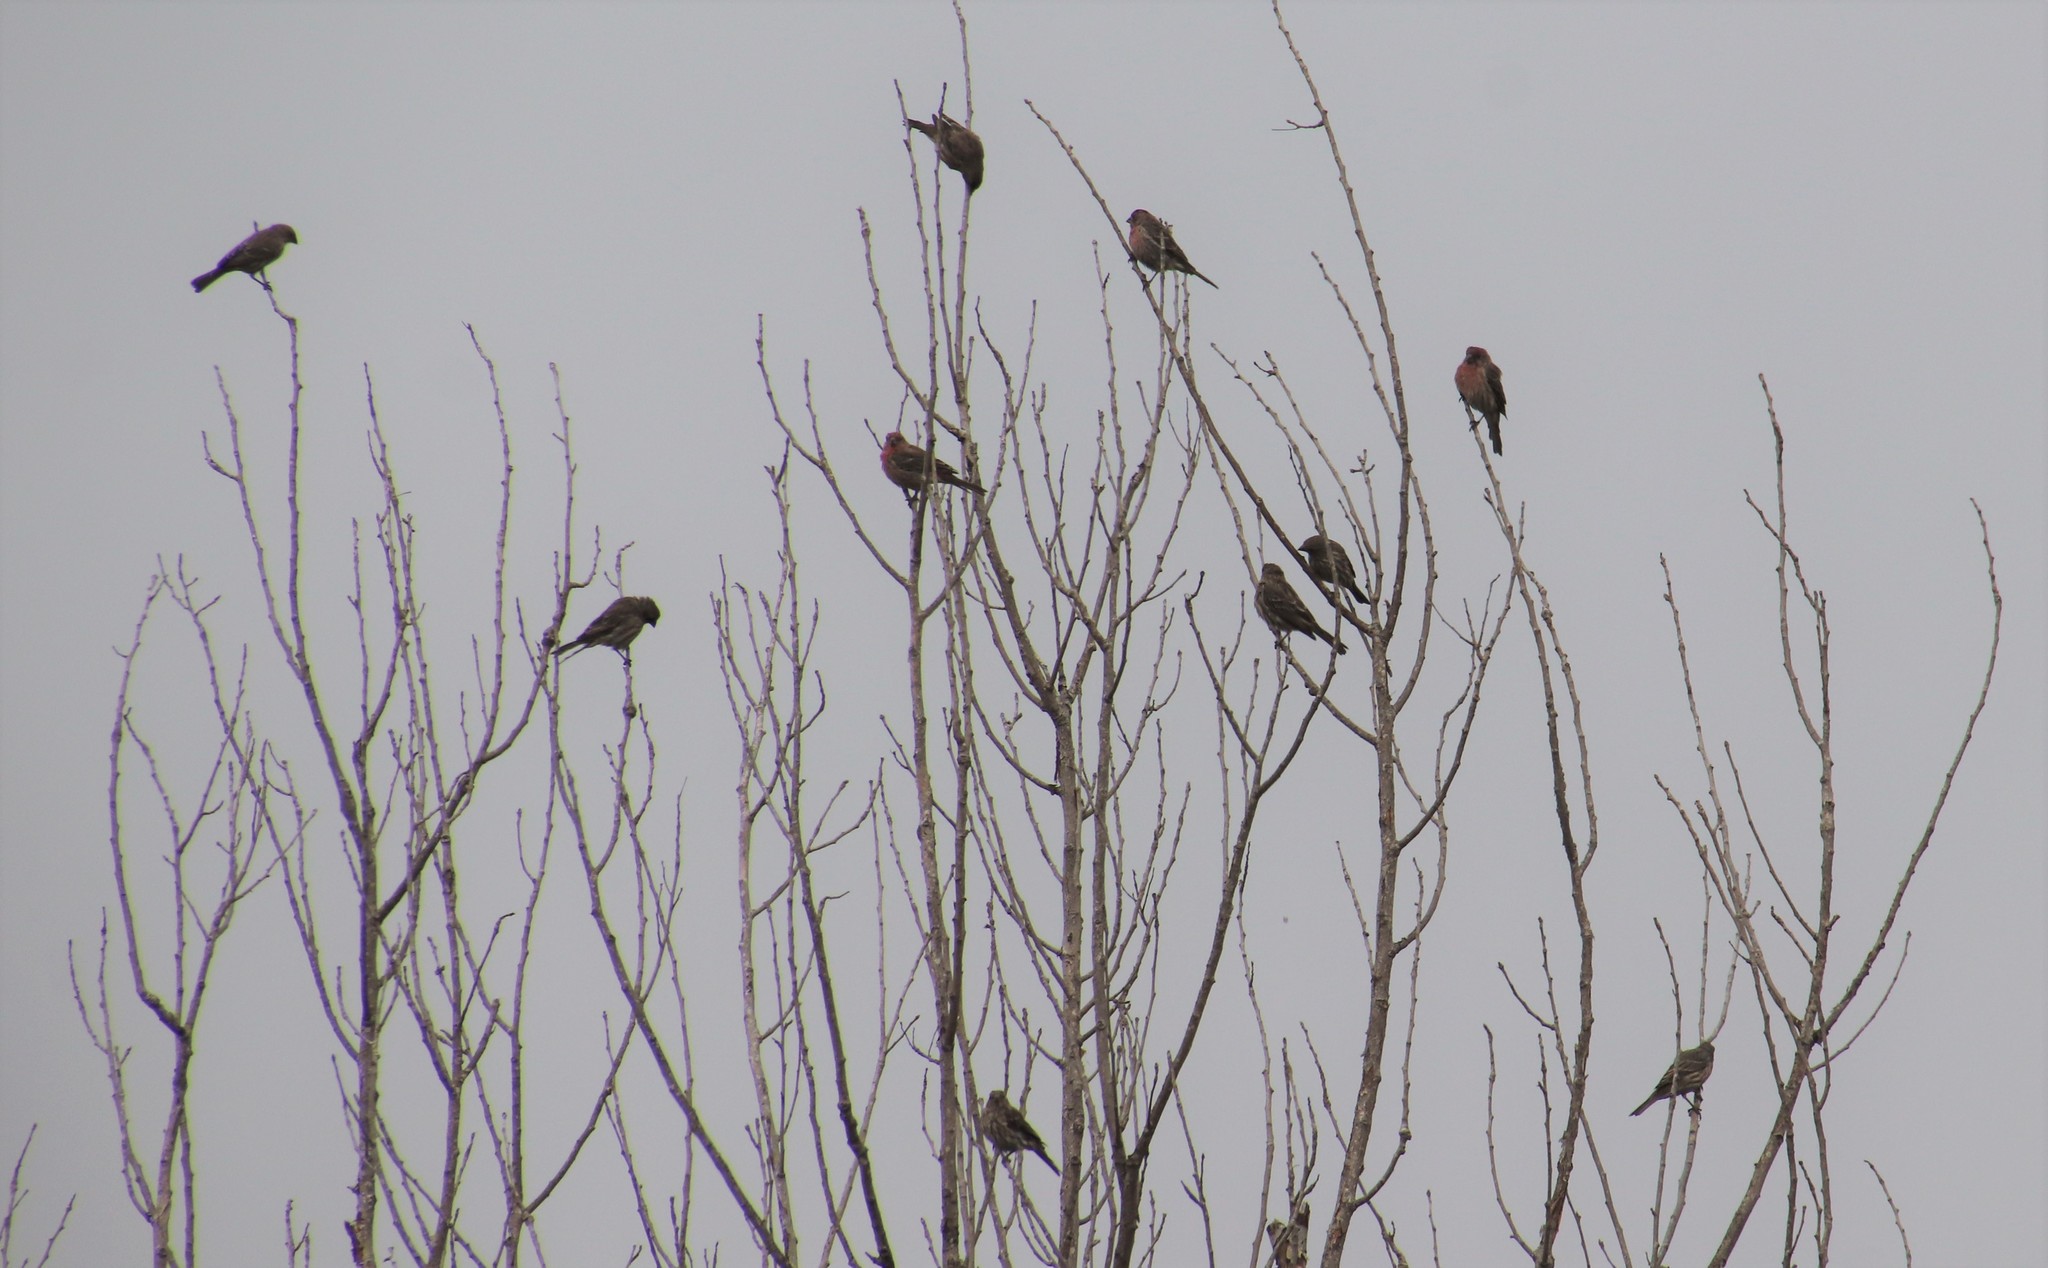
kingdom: Animalia
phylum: Chordata
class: Aves
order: Passeriformes
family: Fringillidae
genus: Haemorhous
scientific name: Haemorhous mexicanus
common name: House finch
